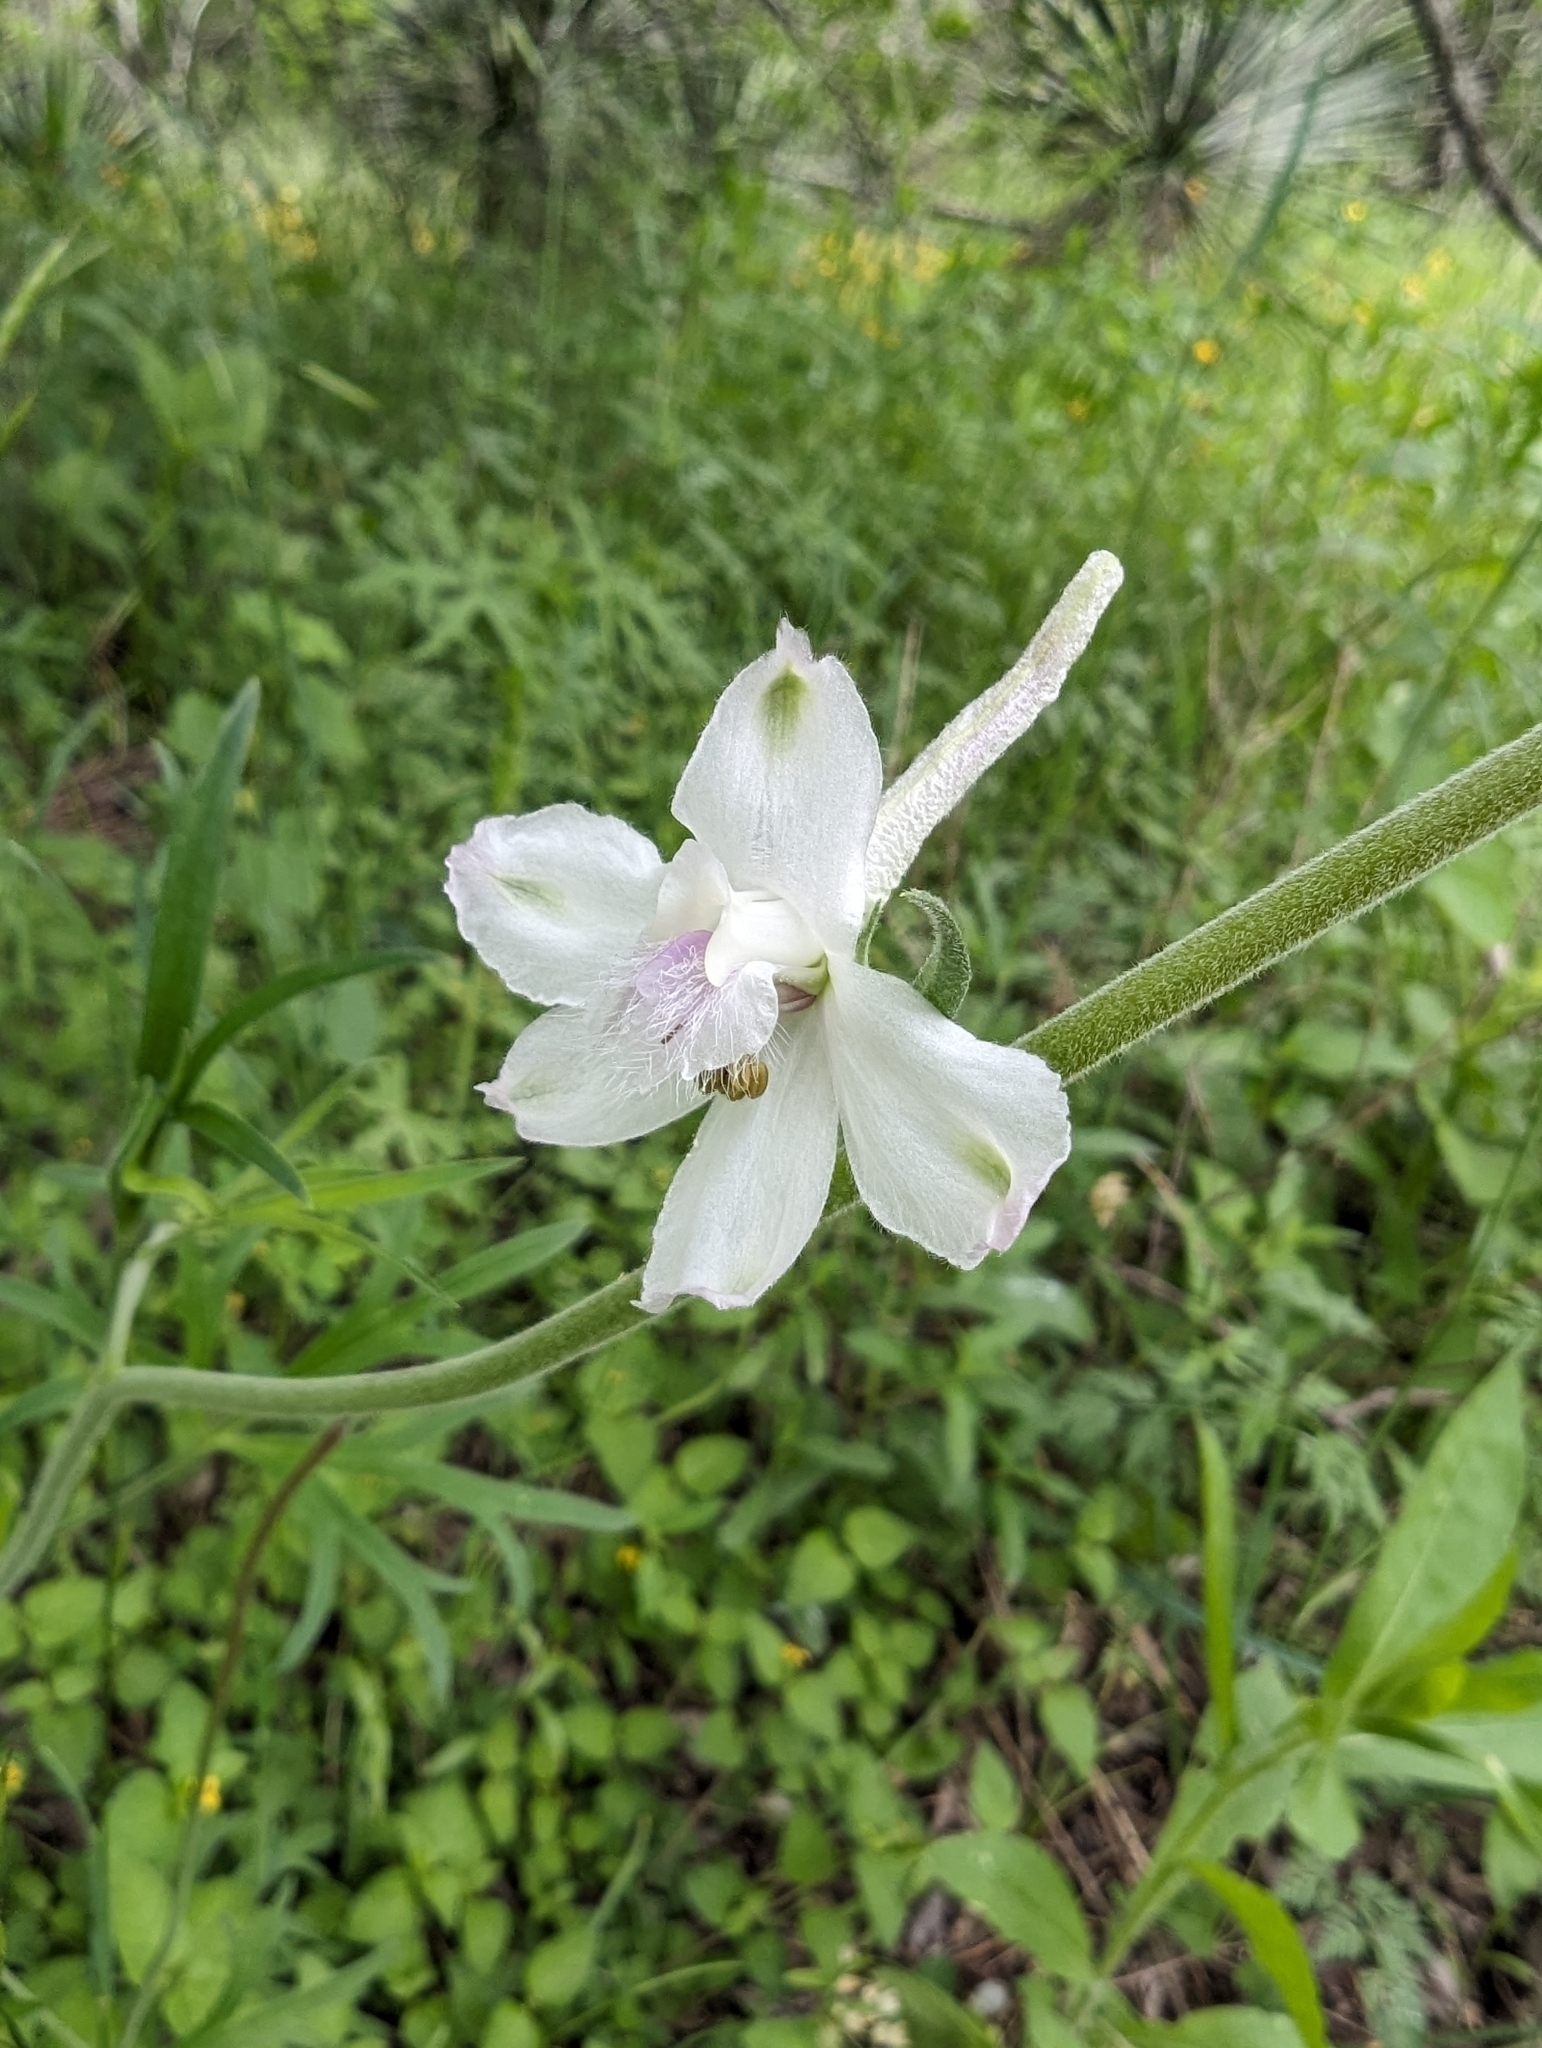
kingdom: Plantae
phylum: Tracheophyta
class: Magnoliopsida
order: Ranunculales
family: Ranunculaceae
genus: Delphinium
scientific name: Delphinium carolinianum
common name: Carolina larkspur
